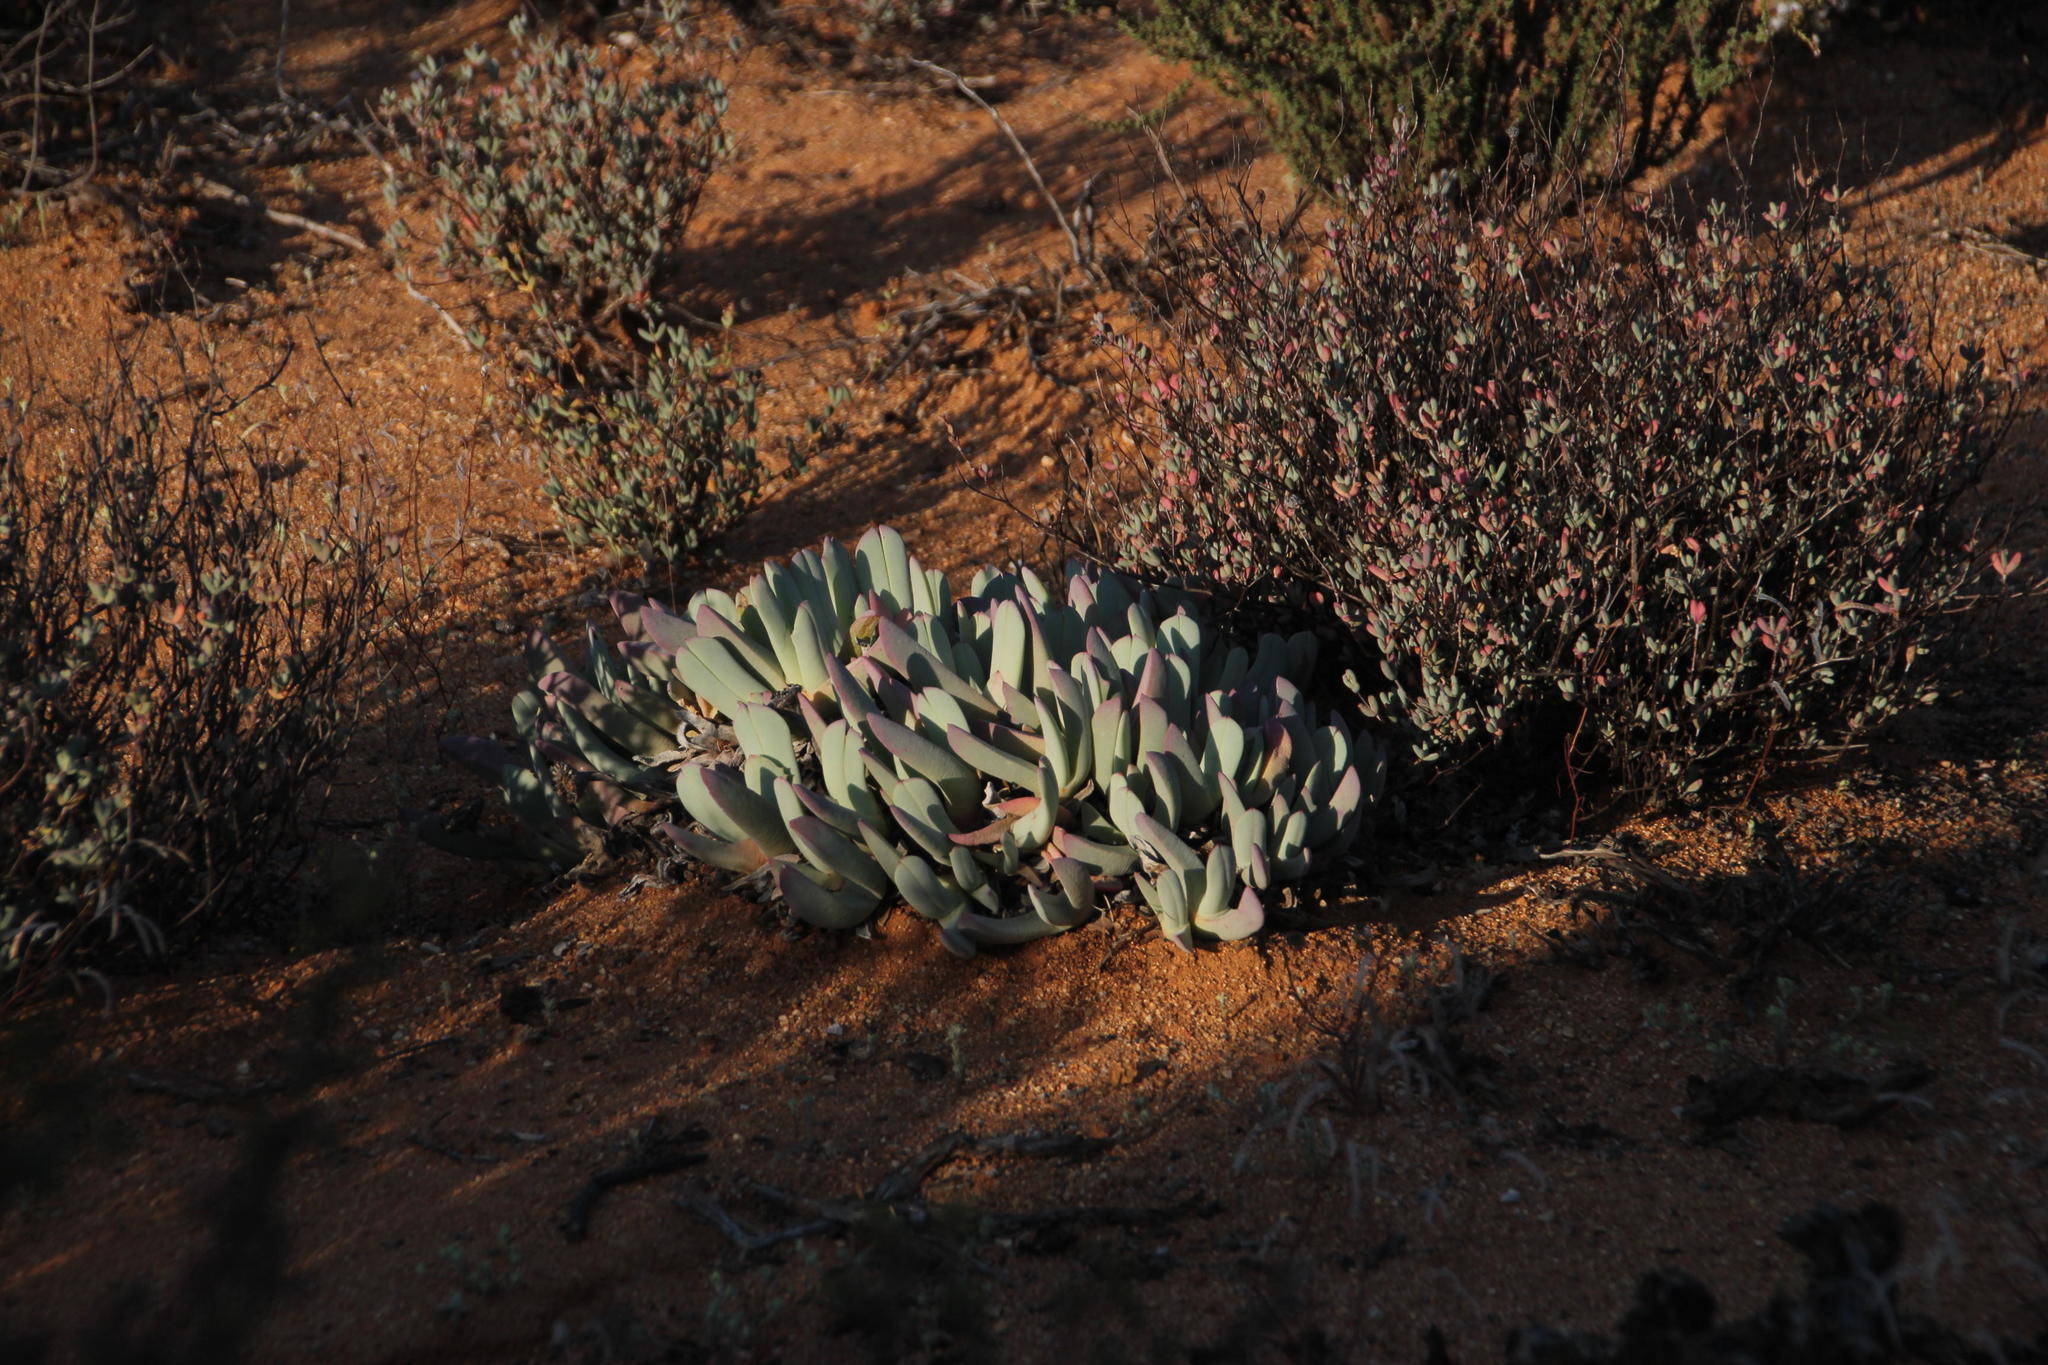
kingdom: Plantae
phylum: Tracheophyta
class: Magnoliopsida
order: Caryophyllales
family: Aizoaceae
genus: Cheiridopsis
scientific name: Cheiridopsis denticulata
